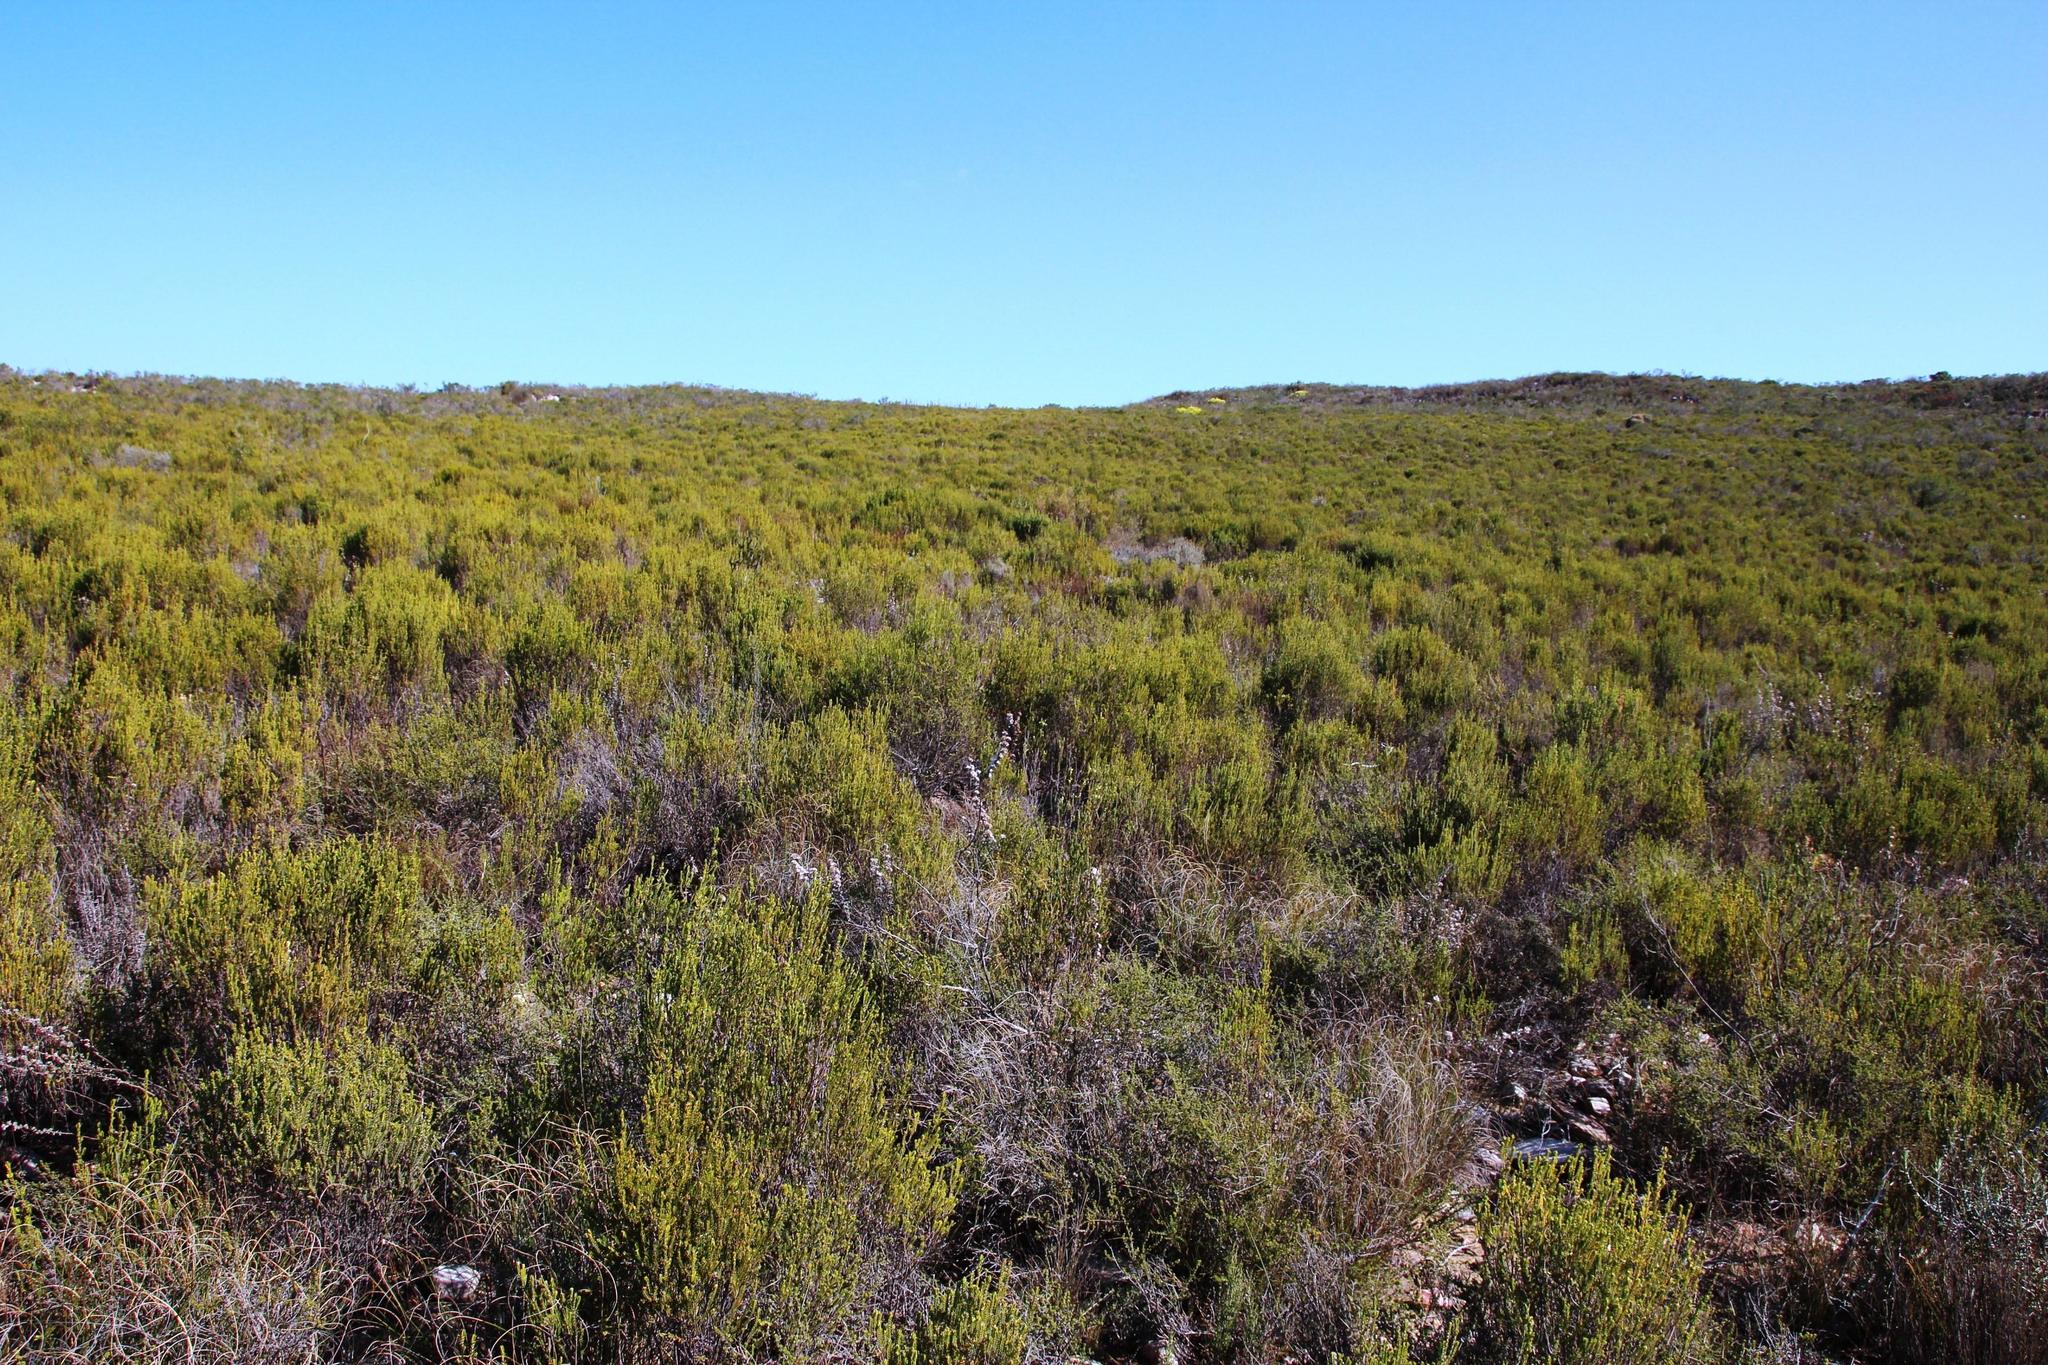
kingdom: Plantae
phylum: Tracheophyta
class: Magnoliopsida
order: Malvales
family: Thymelaeaceae
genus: Passerina
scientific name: Passerina obtusifolia
